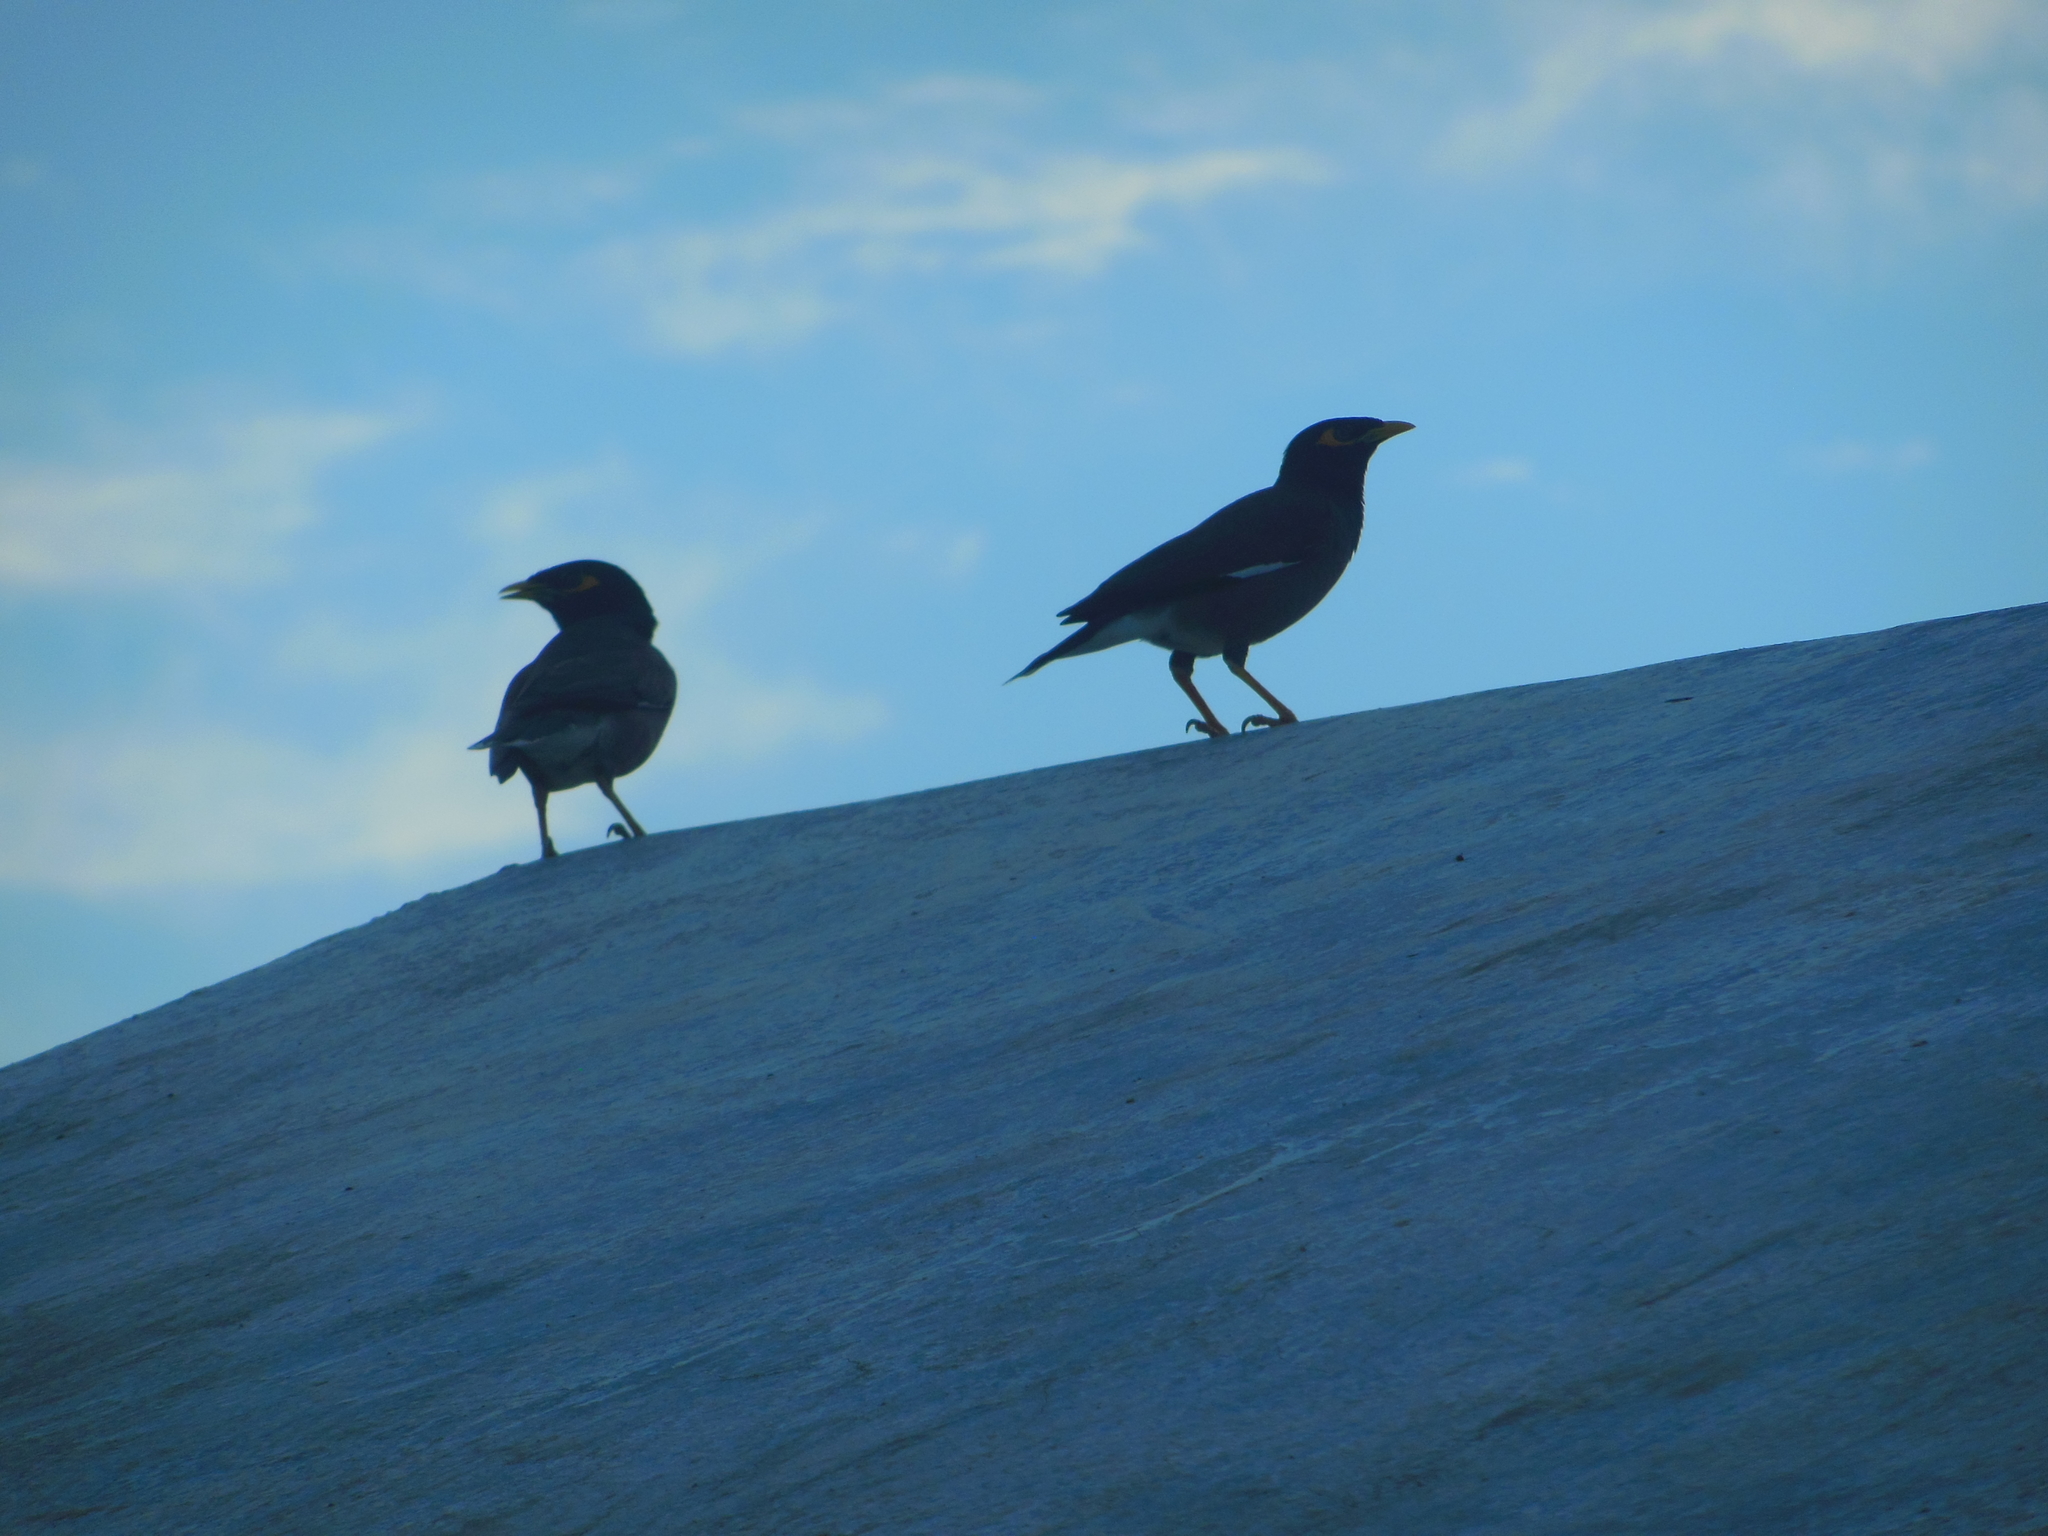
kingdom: Animalia
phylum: Chordata
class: Aves
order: Passeriformes
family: Sturnidae
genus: Acridotheres
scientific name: Acridotheres tristis
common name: Common myna
